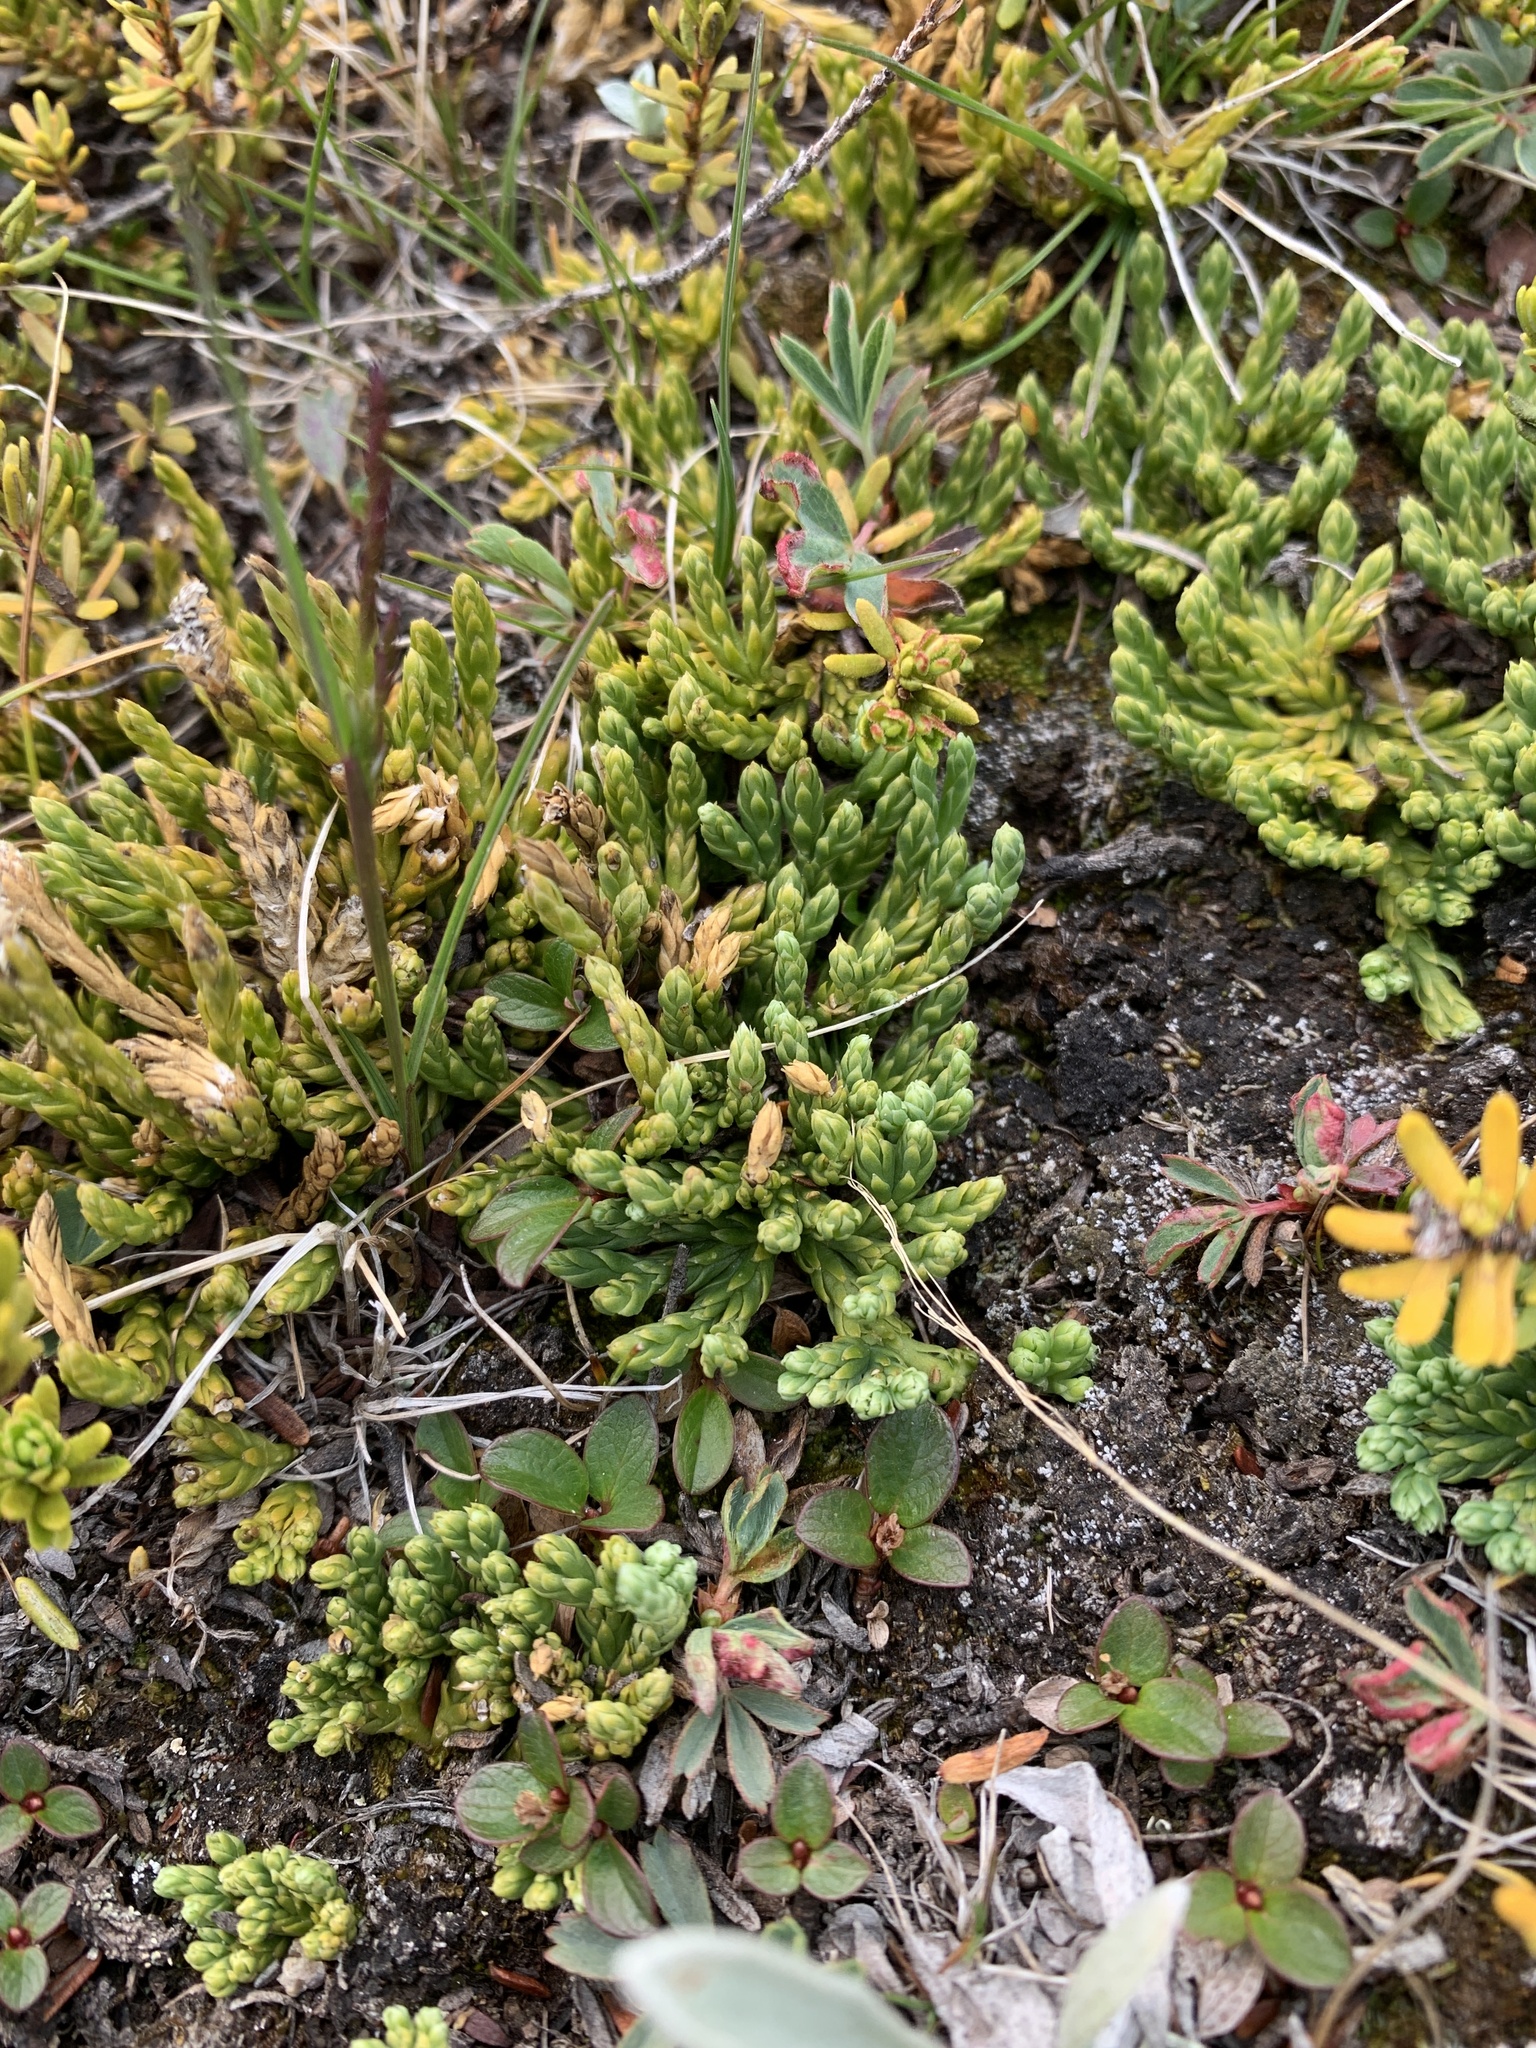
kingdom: Plantae
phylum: Tracheophyta
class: Lycopodiopsida
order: Lycopodiales
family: Lycopodiaceae
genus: Diphasiastrum
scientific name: Diphasiastrum alpinum
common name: Alpine clubmoss
